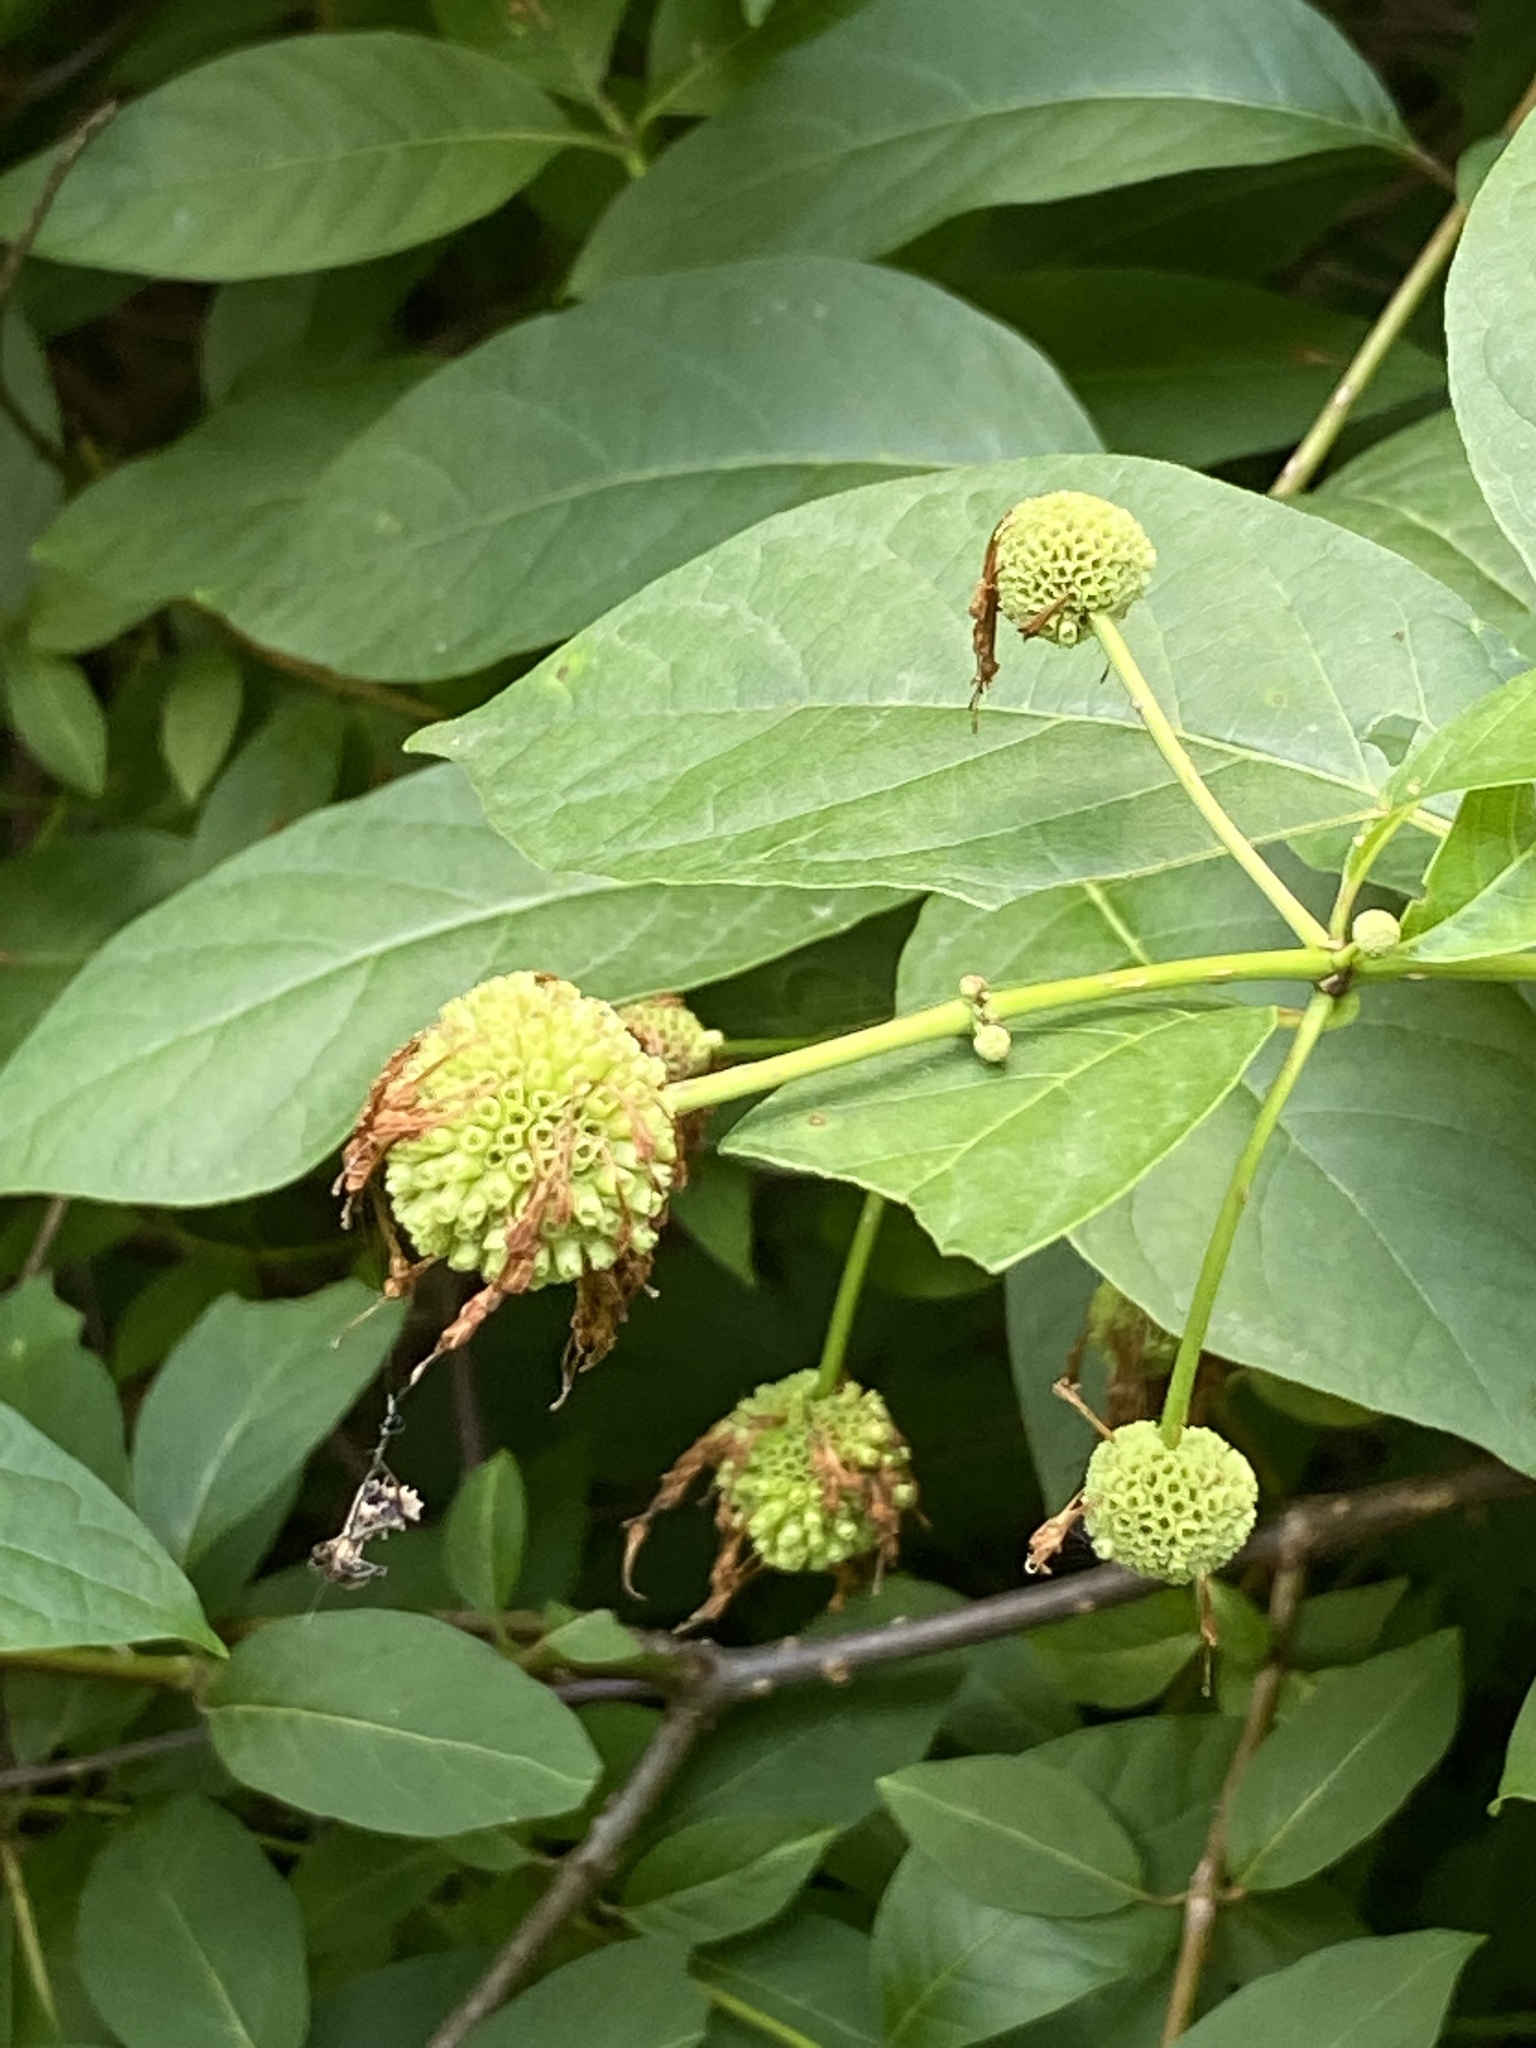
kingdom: Plantae
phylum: Tracheophyta
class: Magnoliopsida
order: Gentianales
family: Rubiaceae
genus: Cephalanthus
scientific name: Cephalanthus occidentalis
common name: Button-willow
